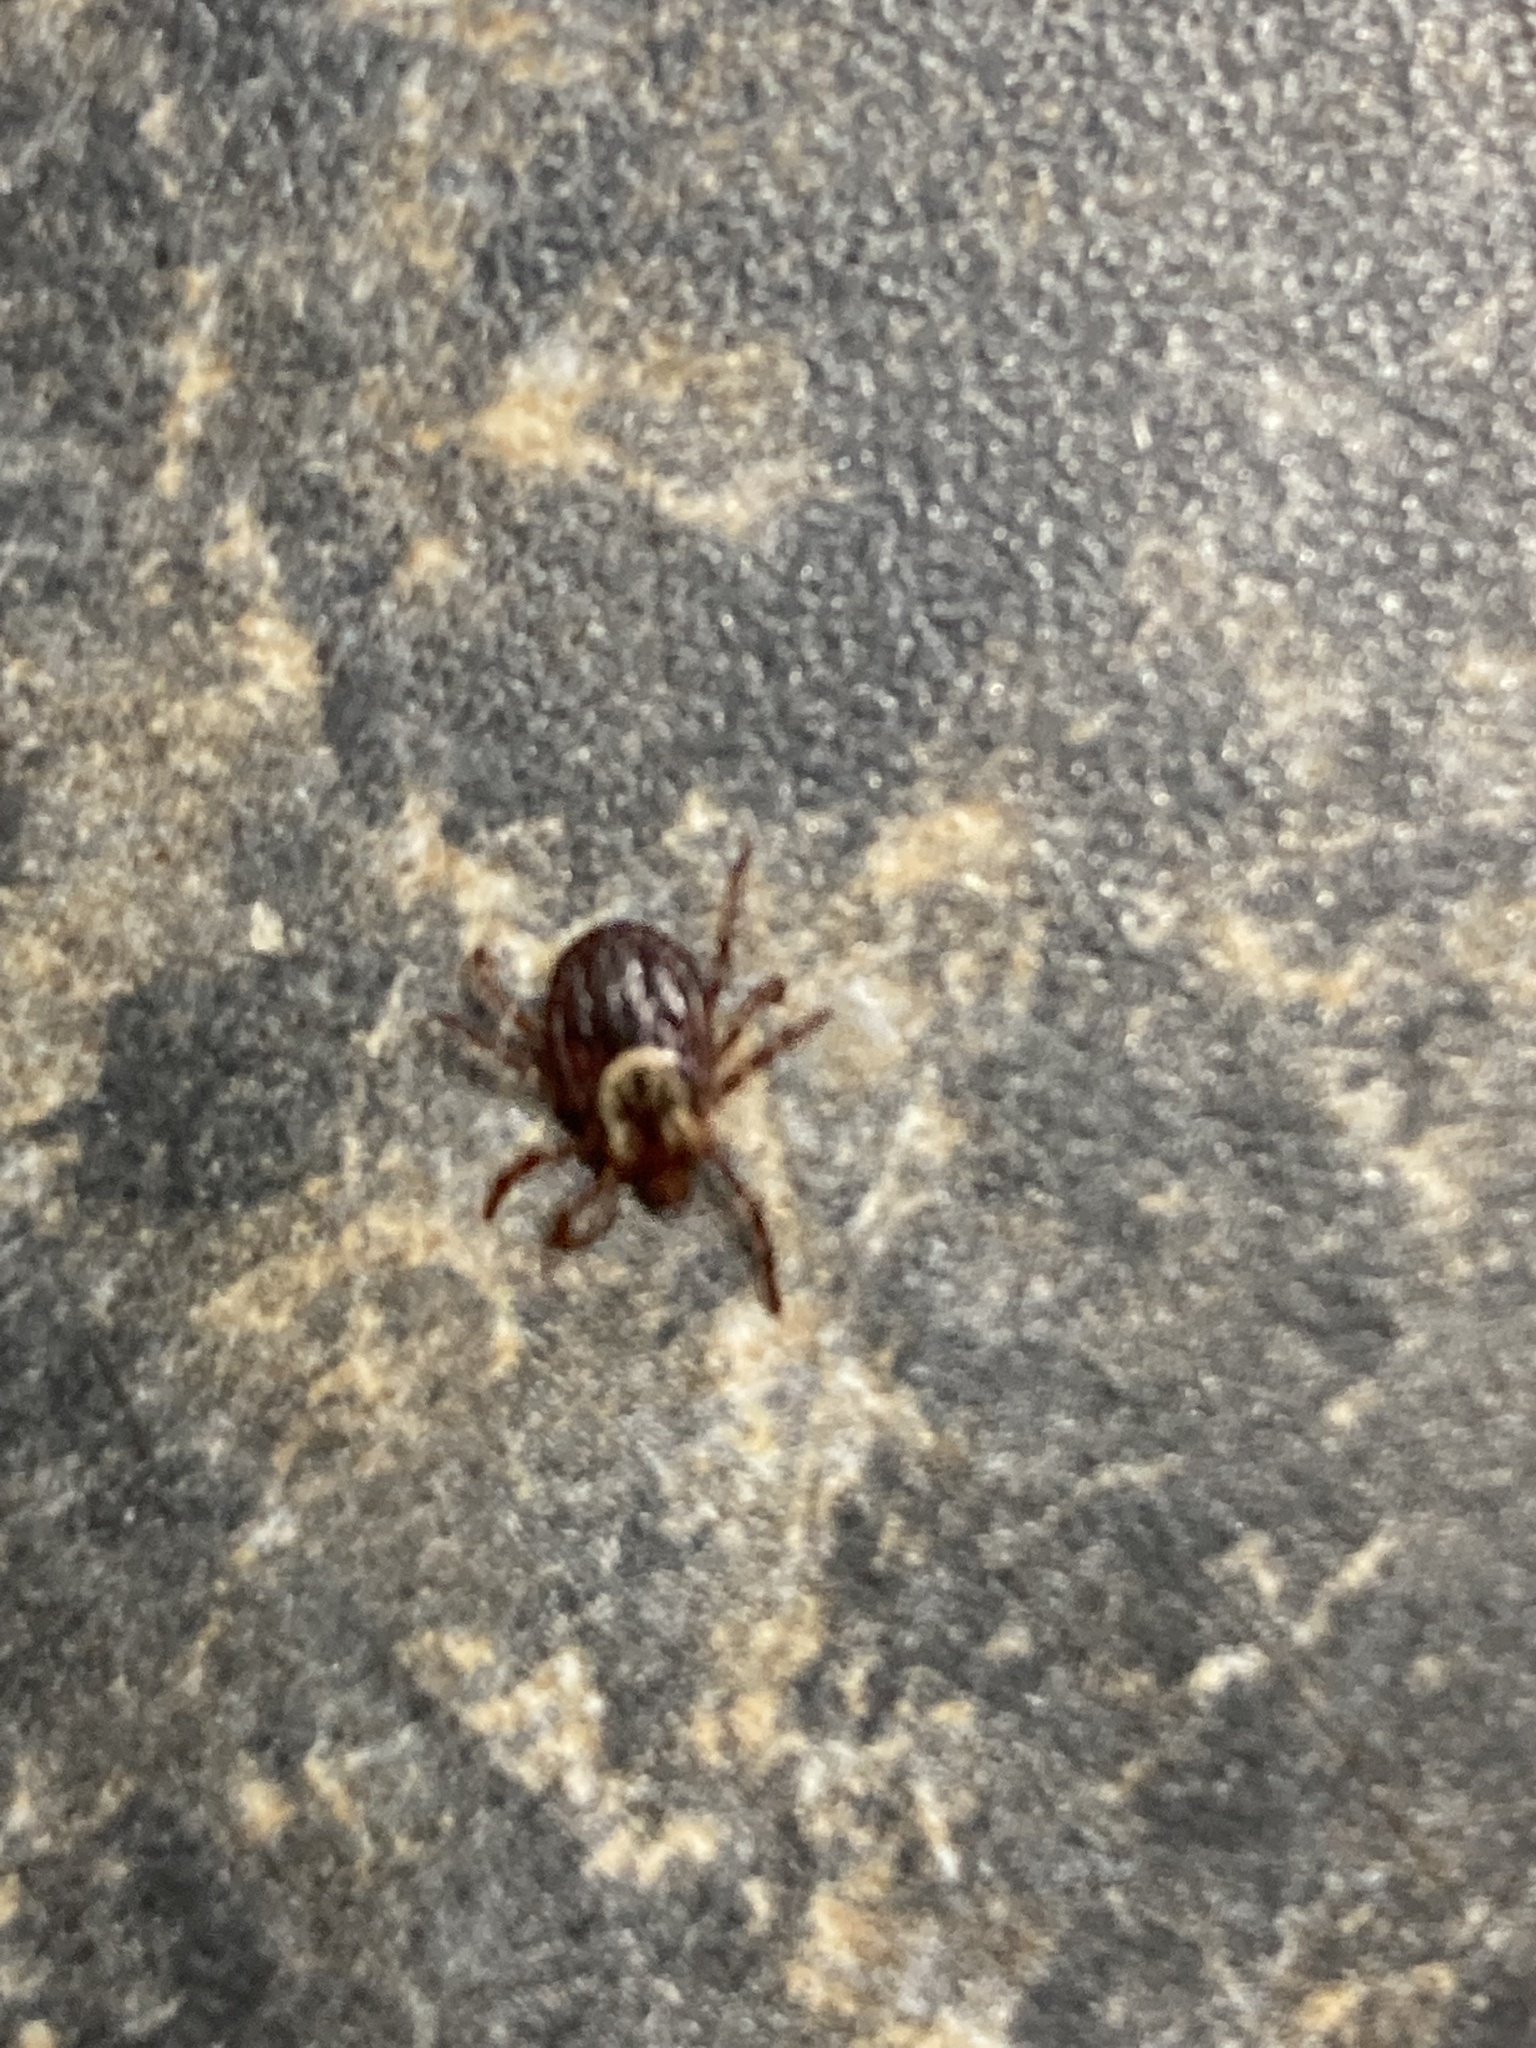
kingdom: Animalia
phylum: Arthropoda
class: Arachnida
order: Ixodida
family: Ixodidae
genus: Dermacentor
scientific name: Dermacentor variabilis
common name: American dog tick
